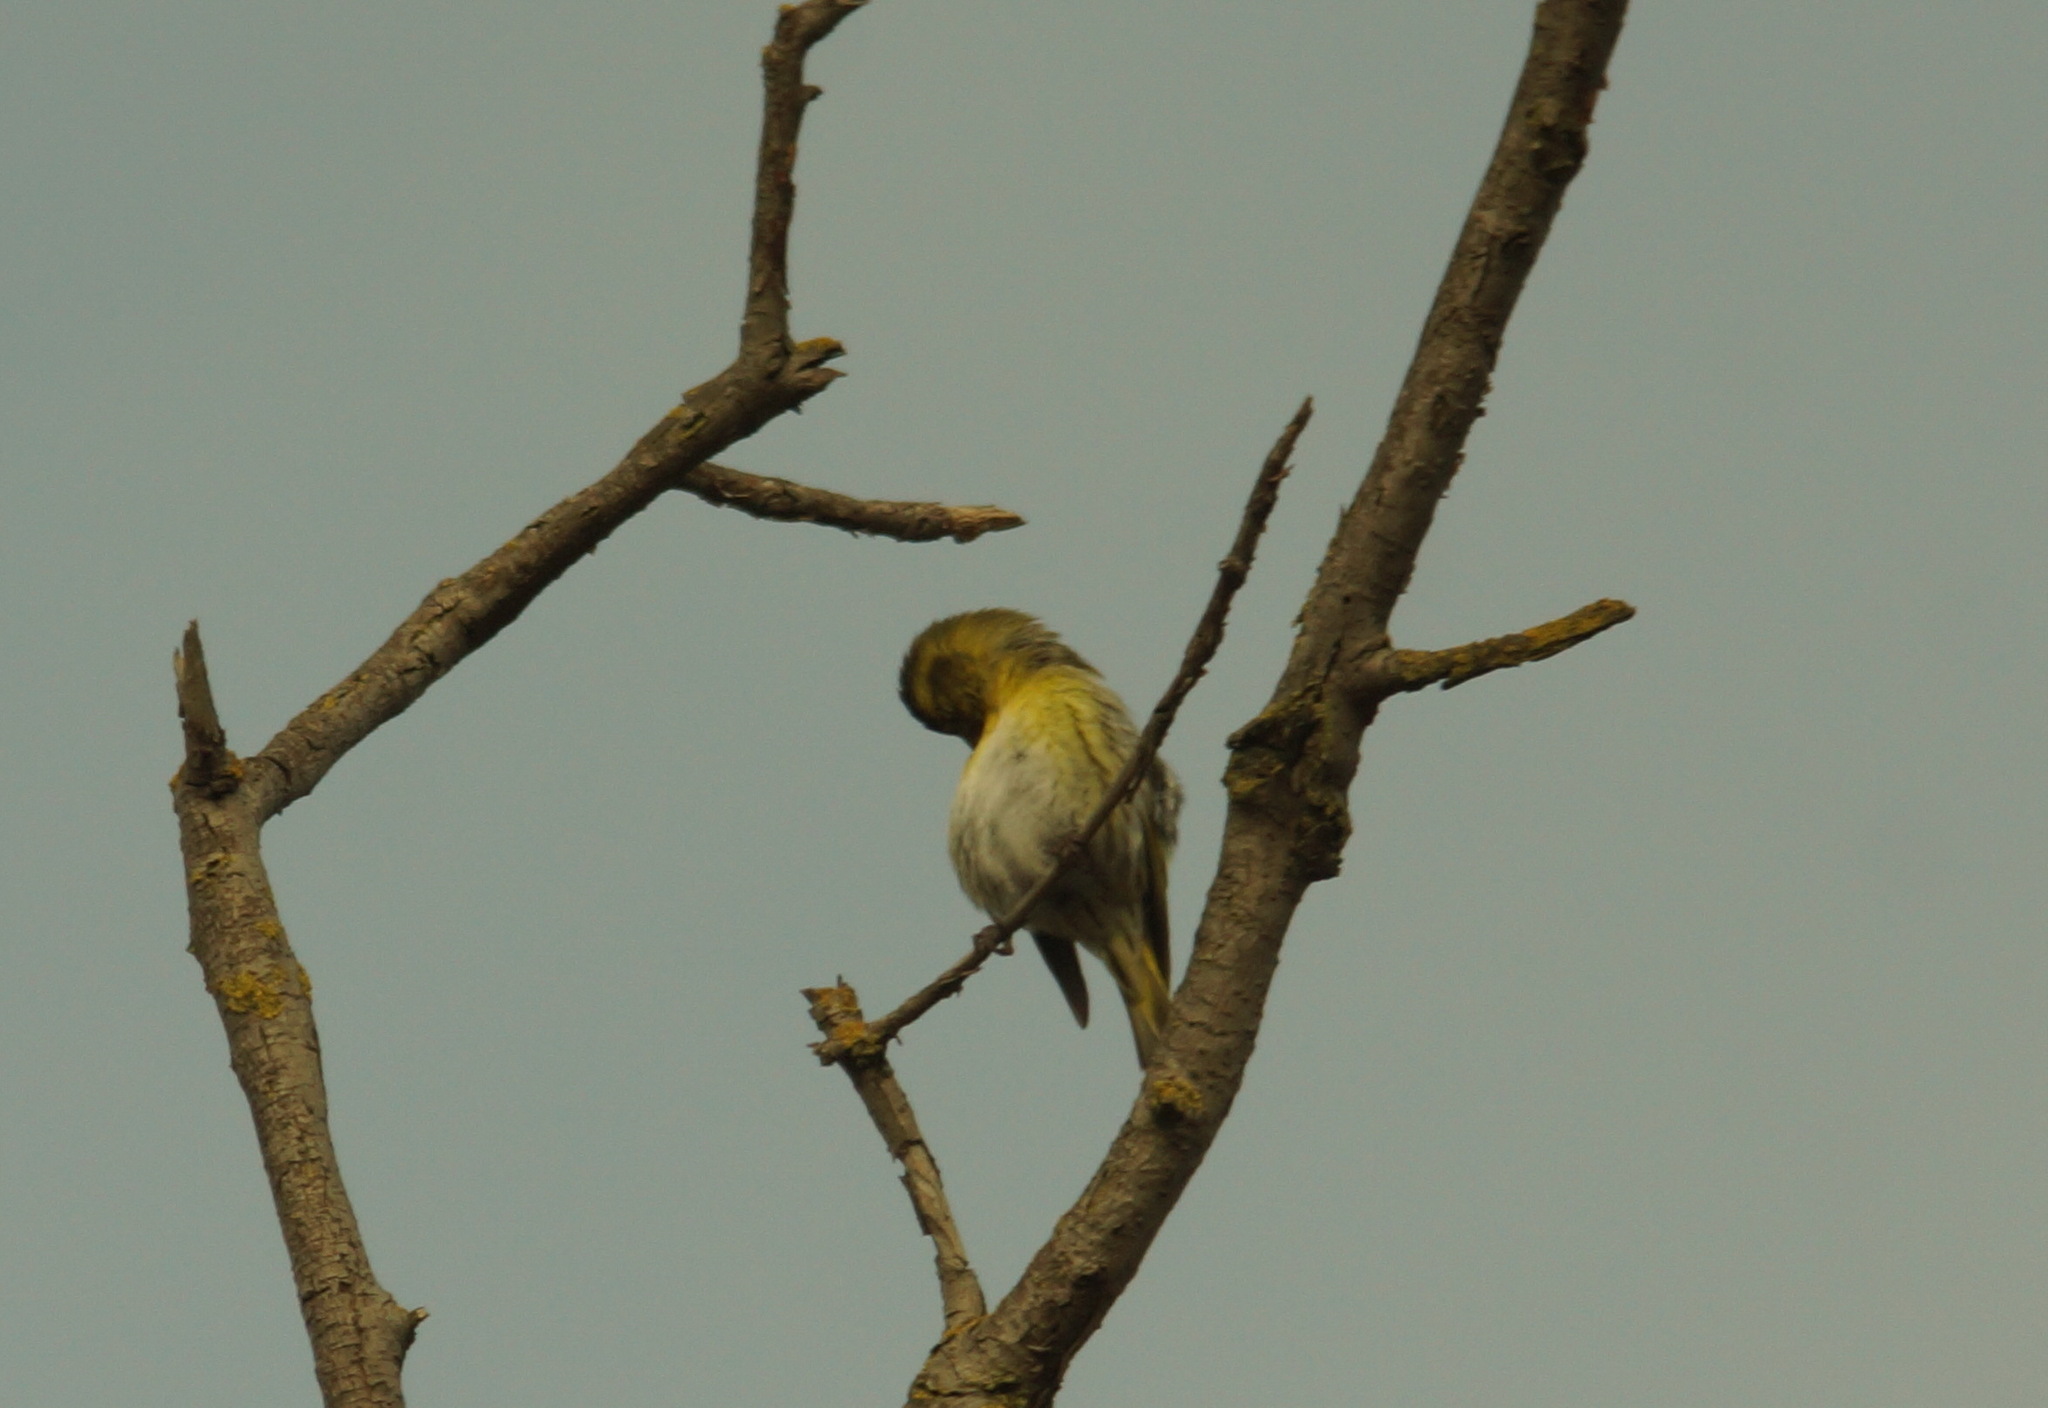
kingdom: Animalia
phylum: Chordata
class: Aves
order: Passeriformes
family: Fringillidae
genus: Spinus
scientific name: Spinus spinus
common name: Eurasian siskin
